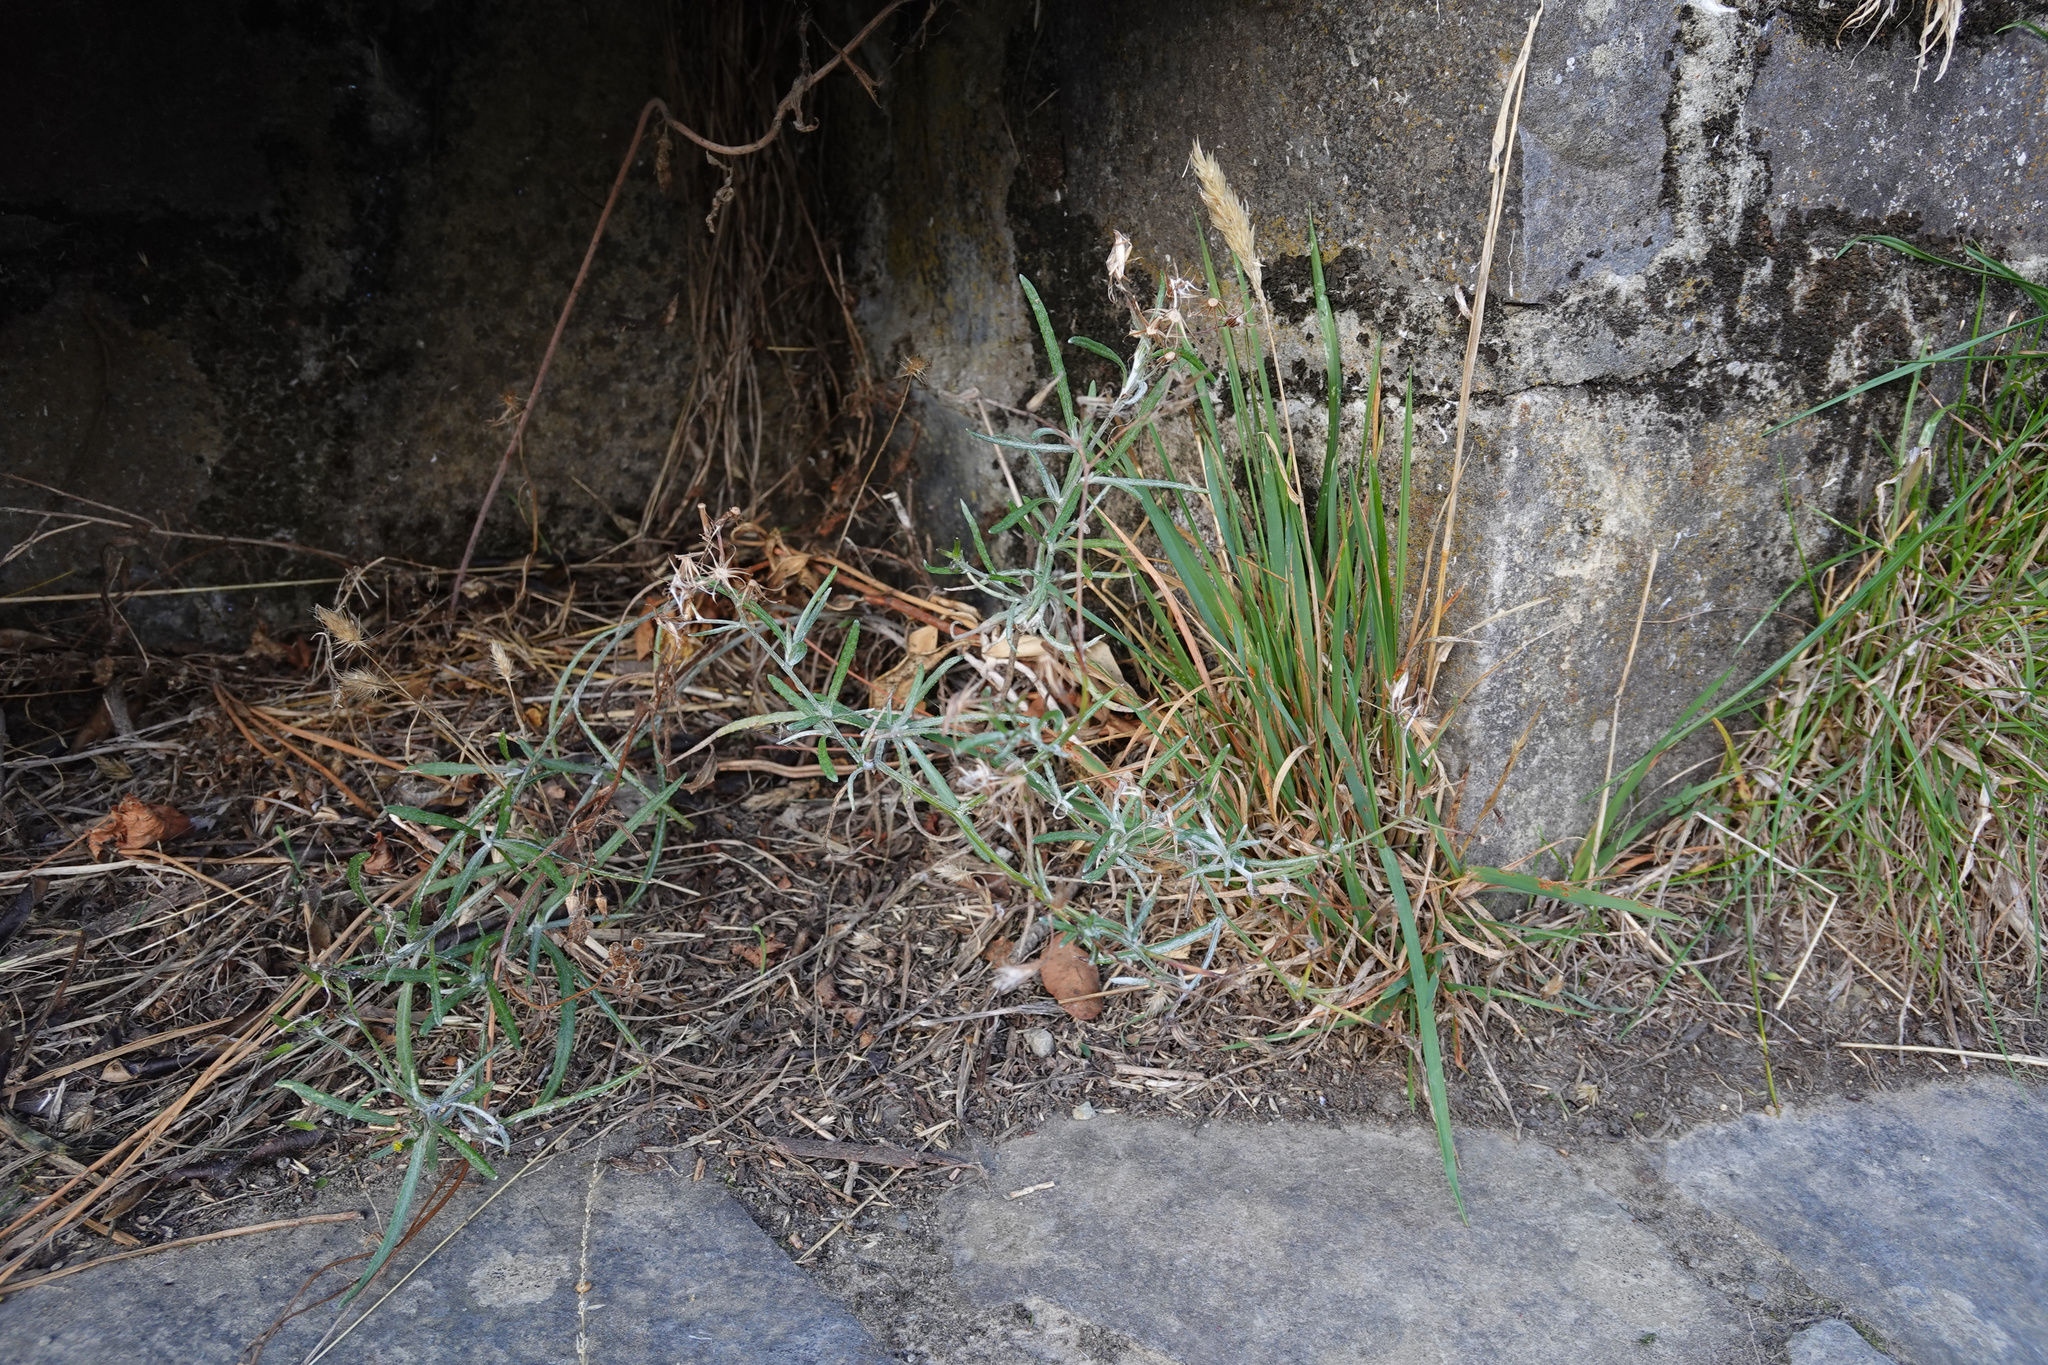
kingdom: Plantae
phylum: Tracheophyta
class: Magnoliopsida
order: Asterales
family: Asteraceae
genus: Senecio
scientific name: Senecio quadridentatus
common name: Cotton fireweed
